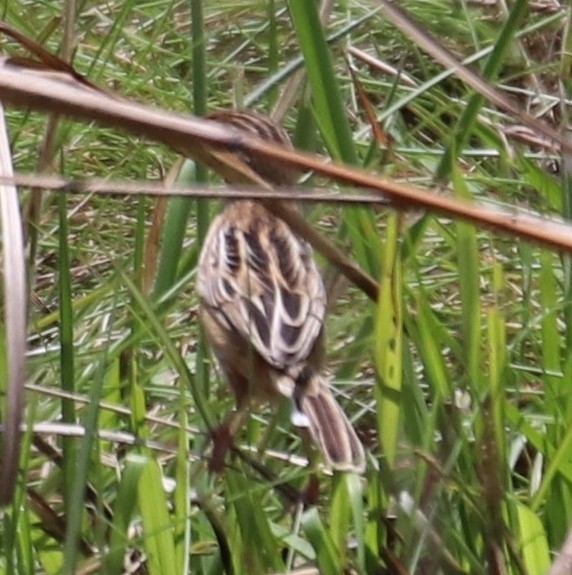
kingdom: Animalia
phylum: Chordata
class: Aves
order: Passeriformes
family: Cisticolidae
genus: Cisticola
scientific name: Cisticola juncidis
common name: Zitting cisticola
